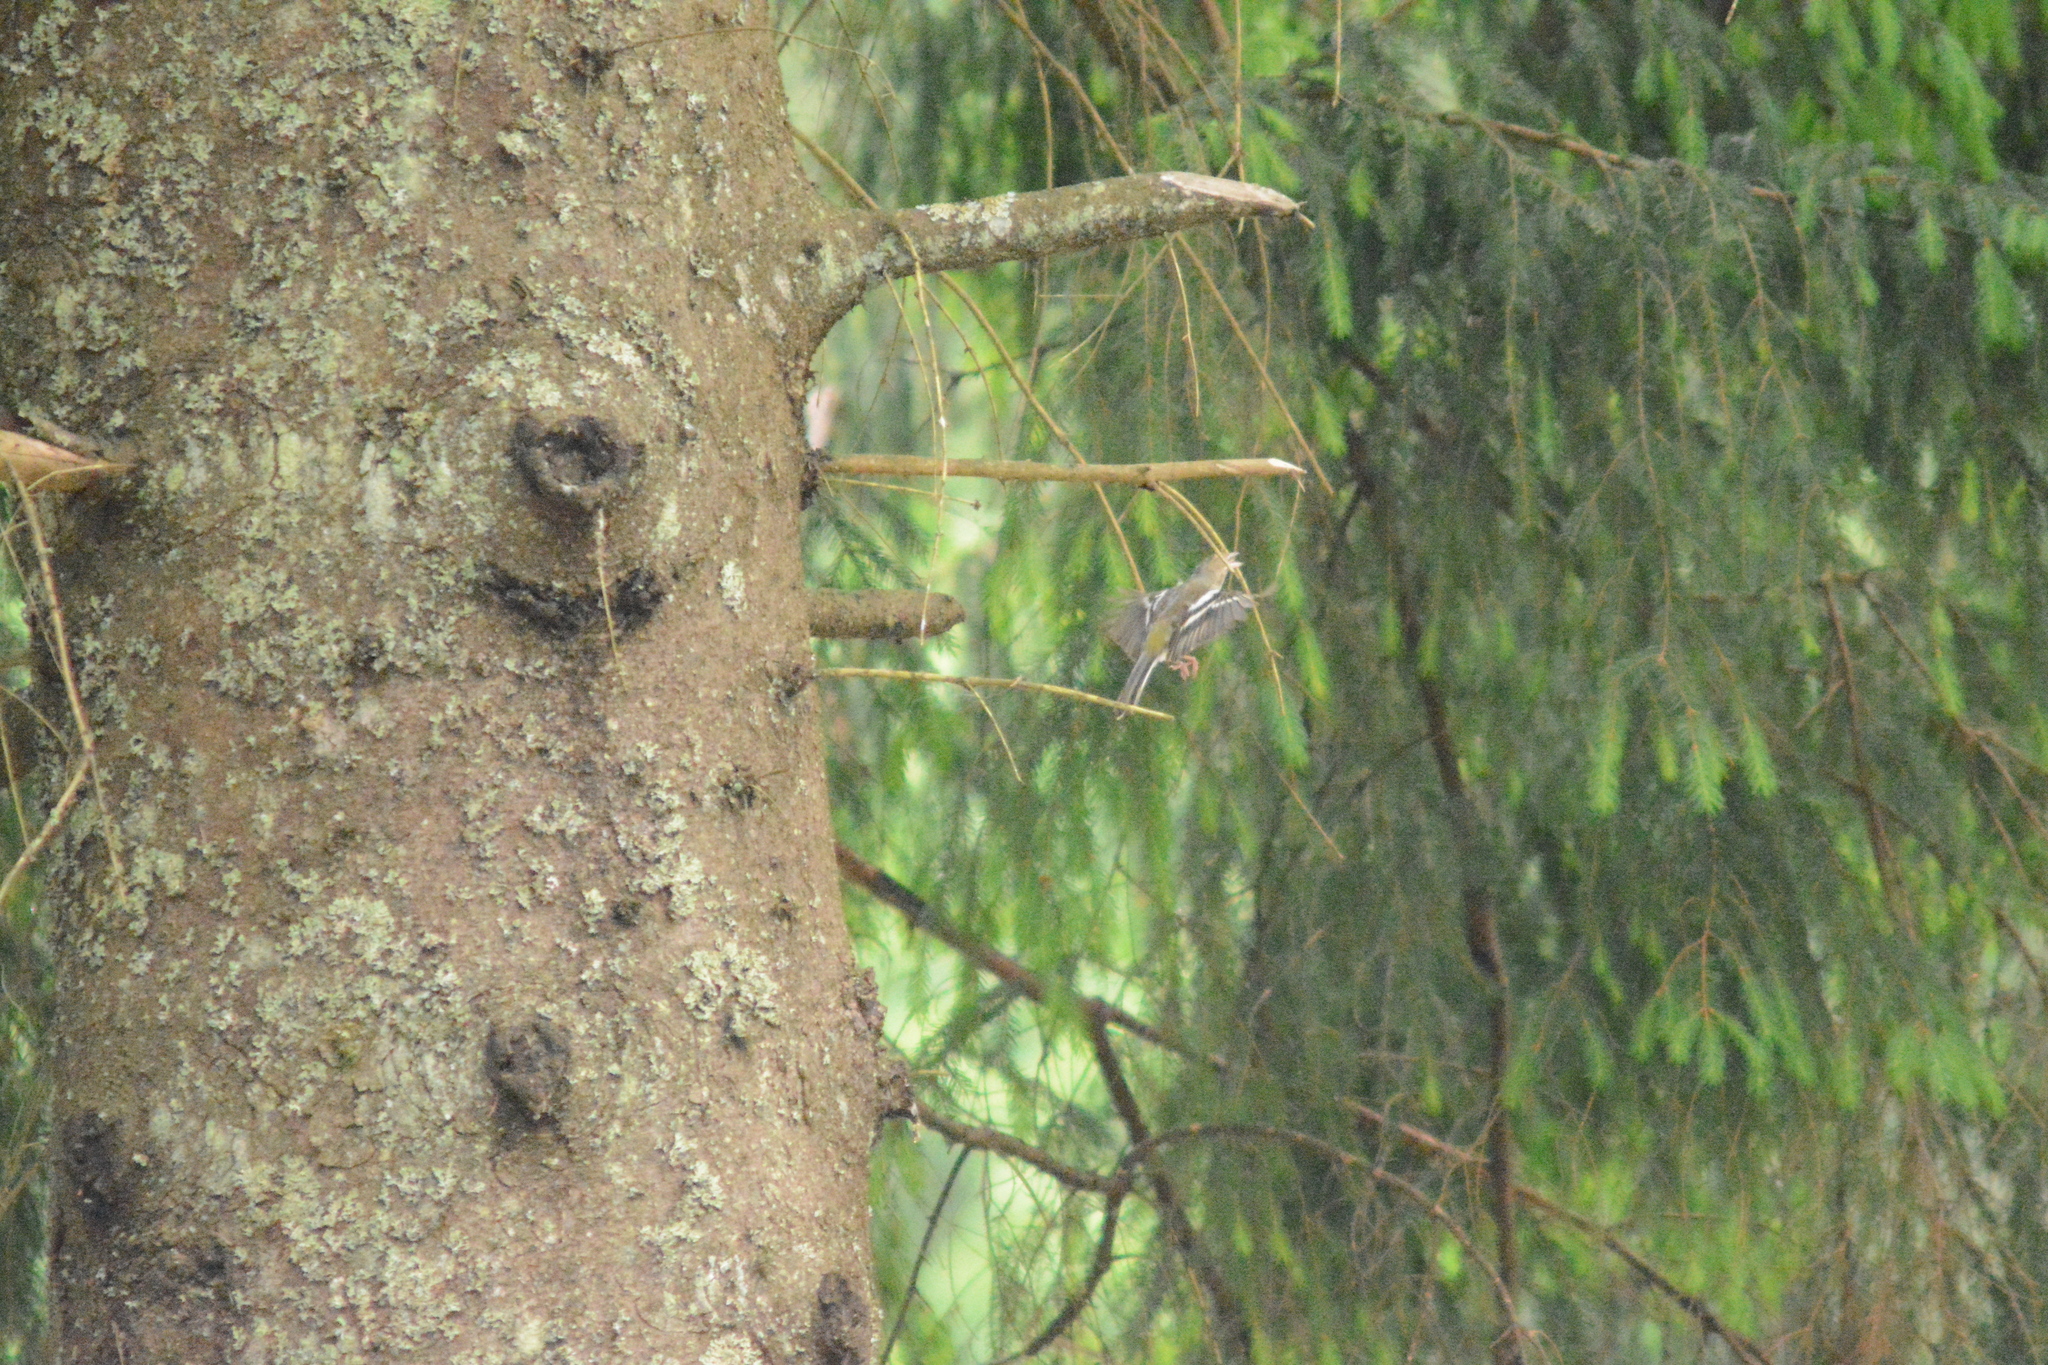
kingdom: Animalia
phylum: Chordata
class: Aves
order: Passeriformes
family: Fringillidae
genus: Fringilla
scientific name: Fringilla coelebs
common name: Common chaffinch
